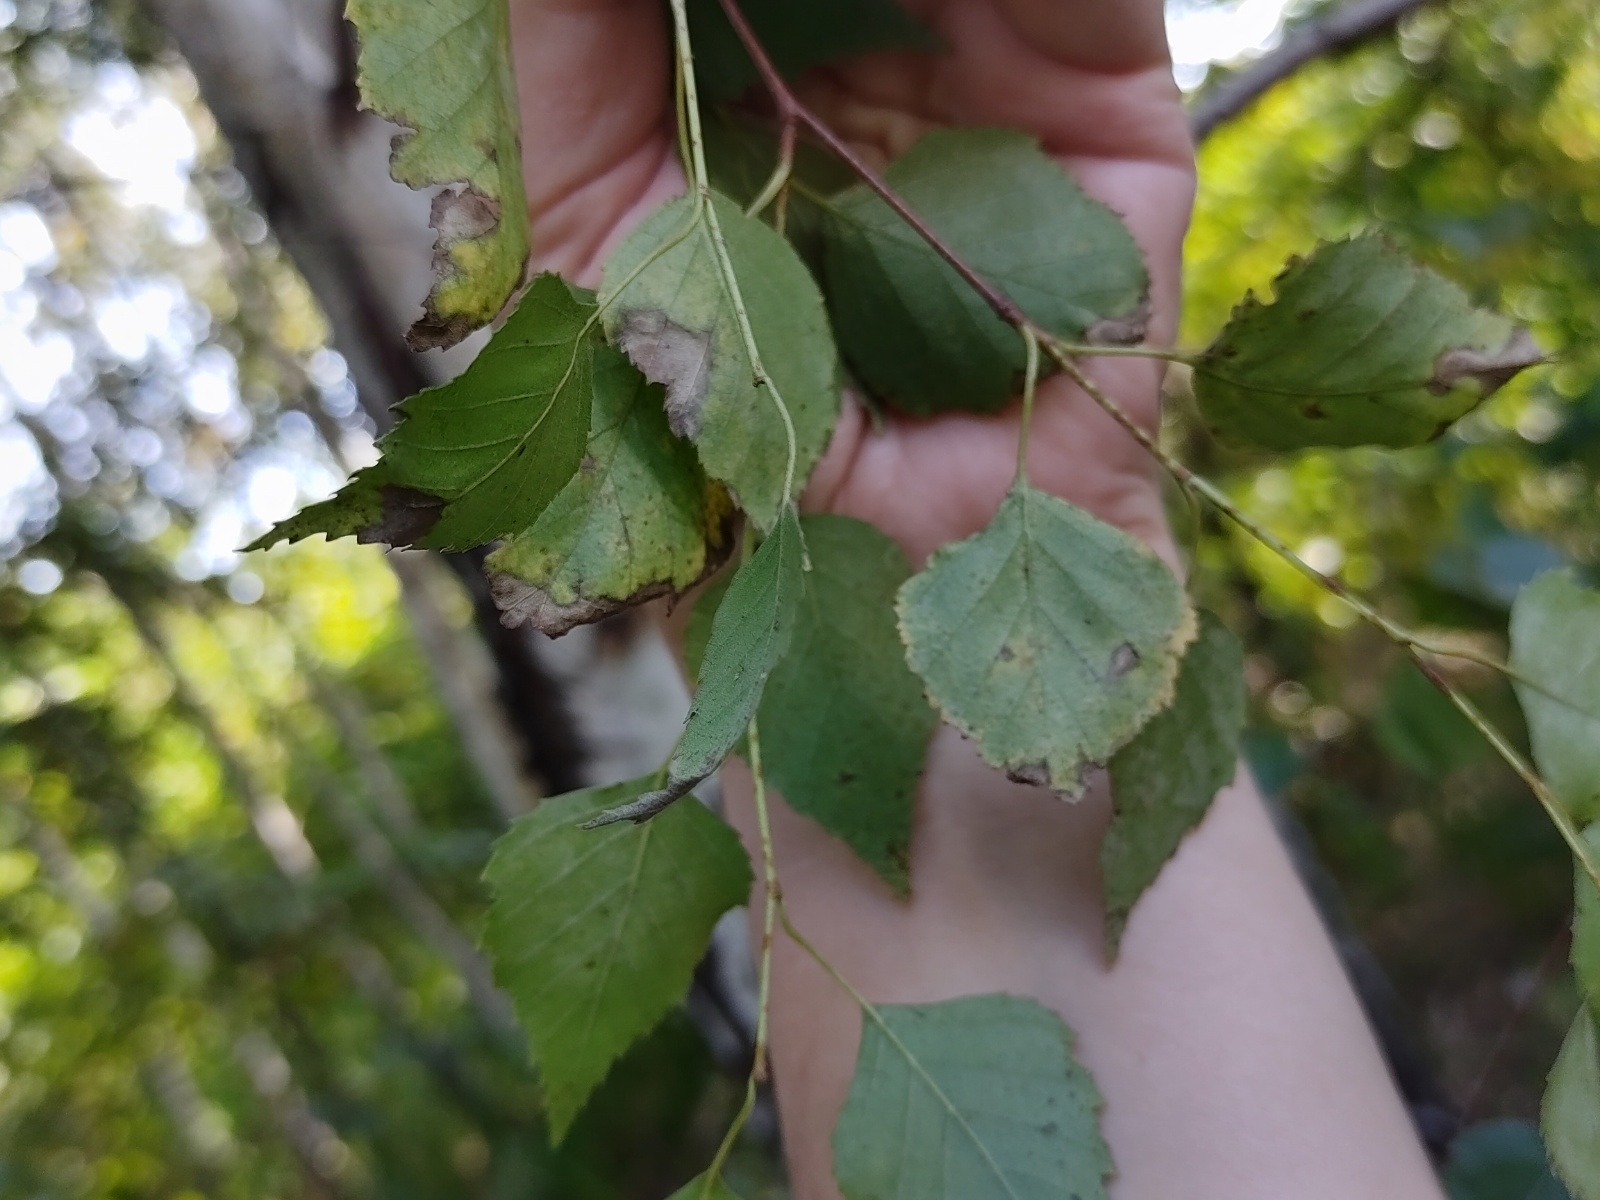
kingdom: Plantae
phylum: Tracheophyta
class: Magnoliopsida
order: Fagales
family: Betulaceae
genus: Betula
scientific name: Betula pendula
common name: Silver birch
